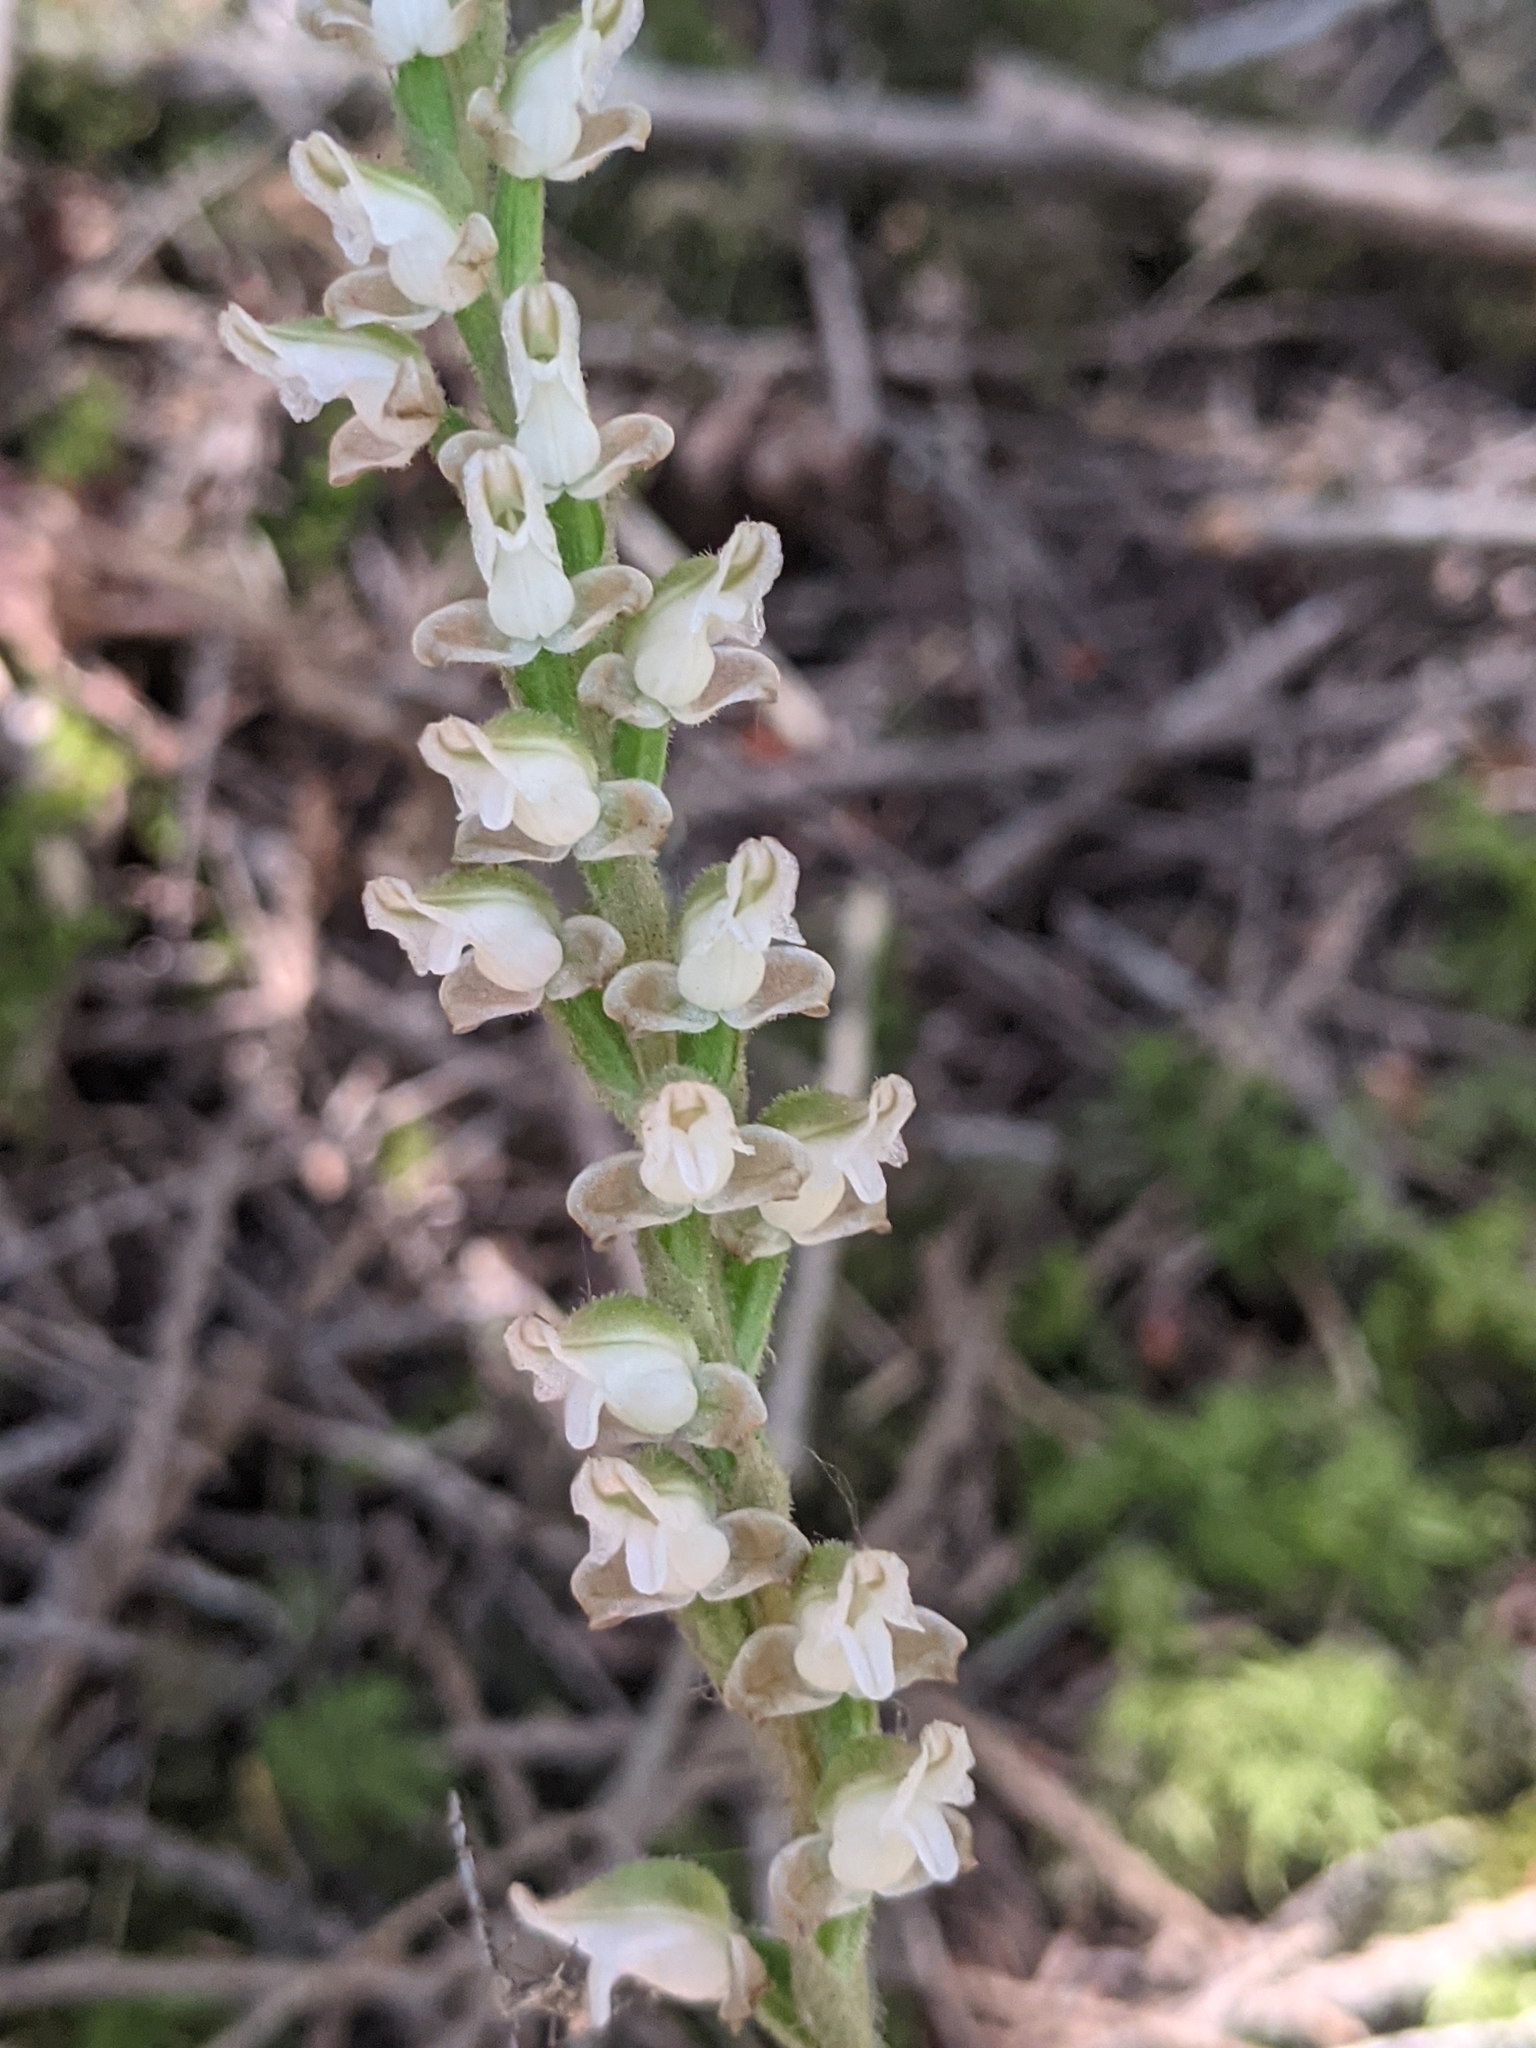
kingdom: Plantae
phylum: Tracheophyta
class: Liliopsida
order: Asparagales
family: Orchidaceae
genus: Goodyera
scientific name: Goodyera oblongifolia
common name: Giant rattlesnake-plantain
